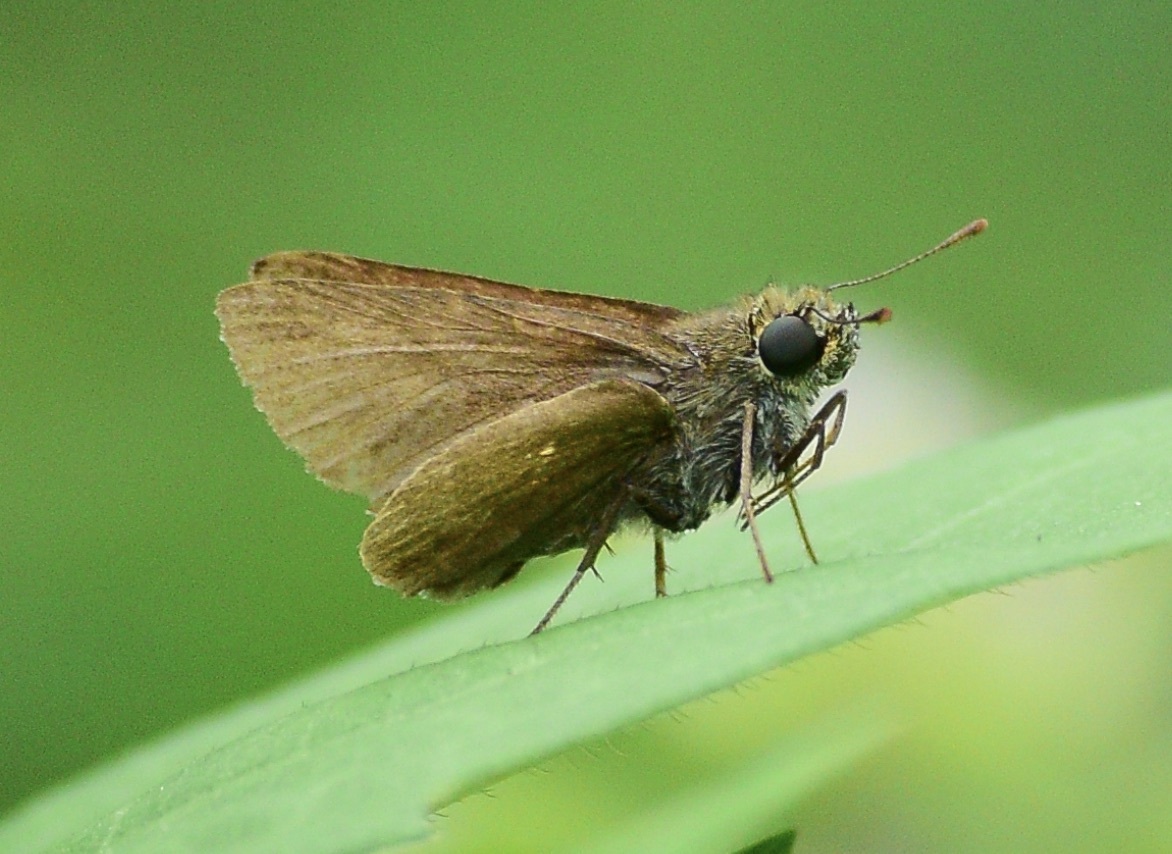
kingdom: Animalia
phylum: Arthropoda
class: Insecta
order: Lepidoptera
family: Hesperiidae
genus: Euphyes
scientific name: Euphyes vestris
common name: Dun skipper
